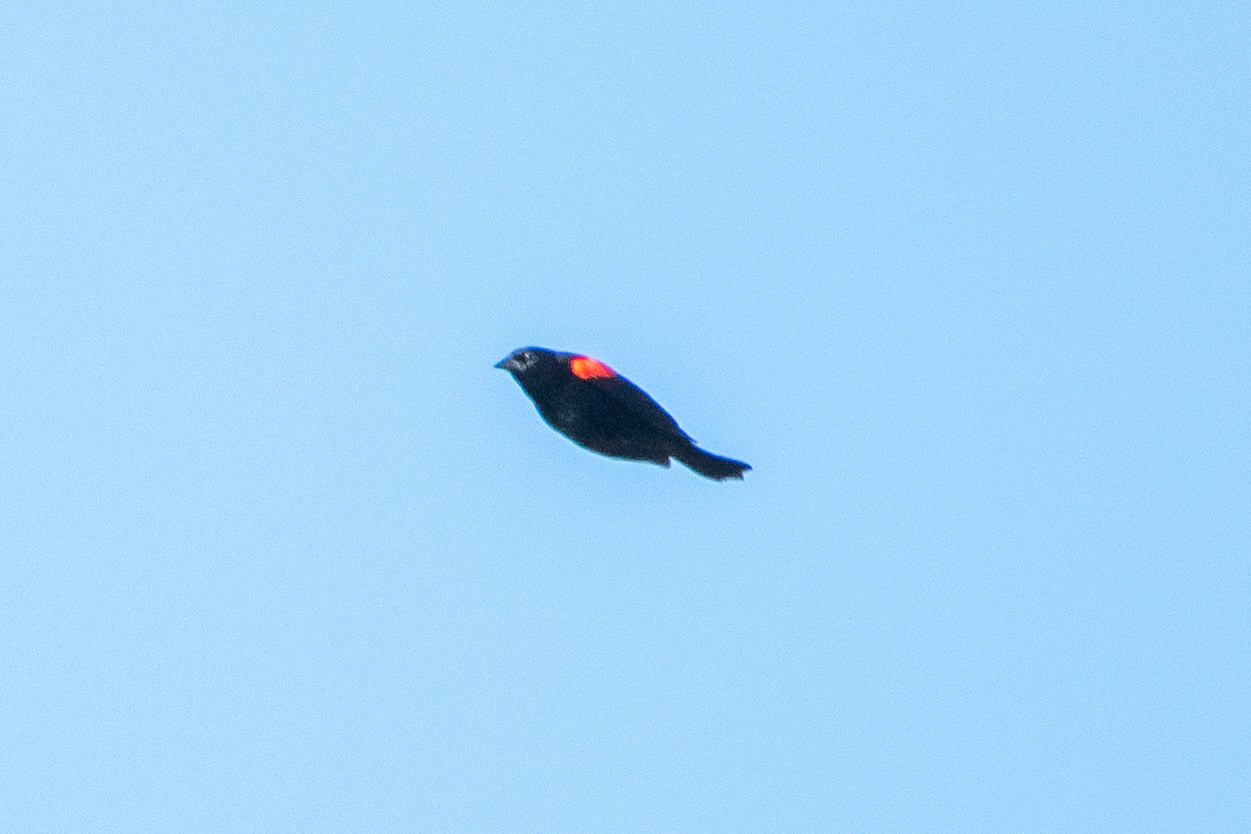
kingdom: Animalia
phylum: Chordata
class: Aves
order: Passeriformes
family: Icteridae
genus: Agelaius
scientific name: Agelaius phoeniceus
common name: Red-winged blackbird
